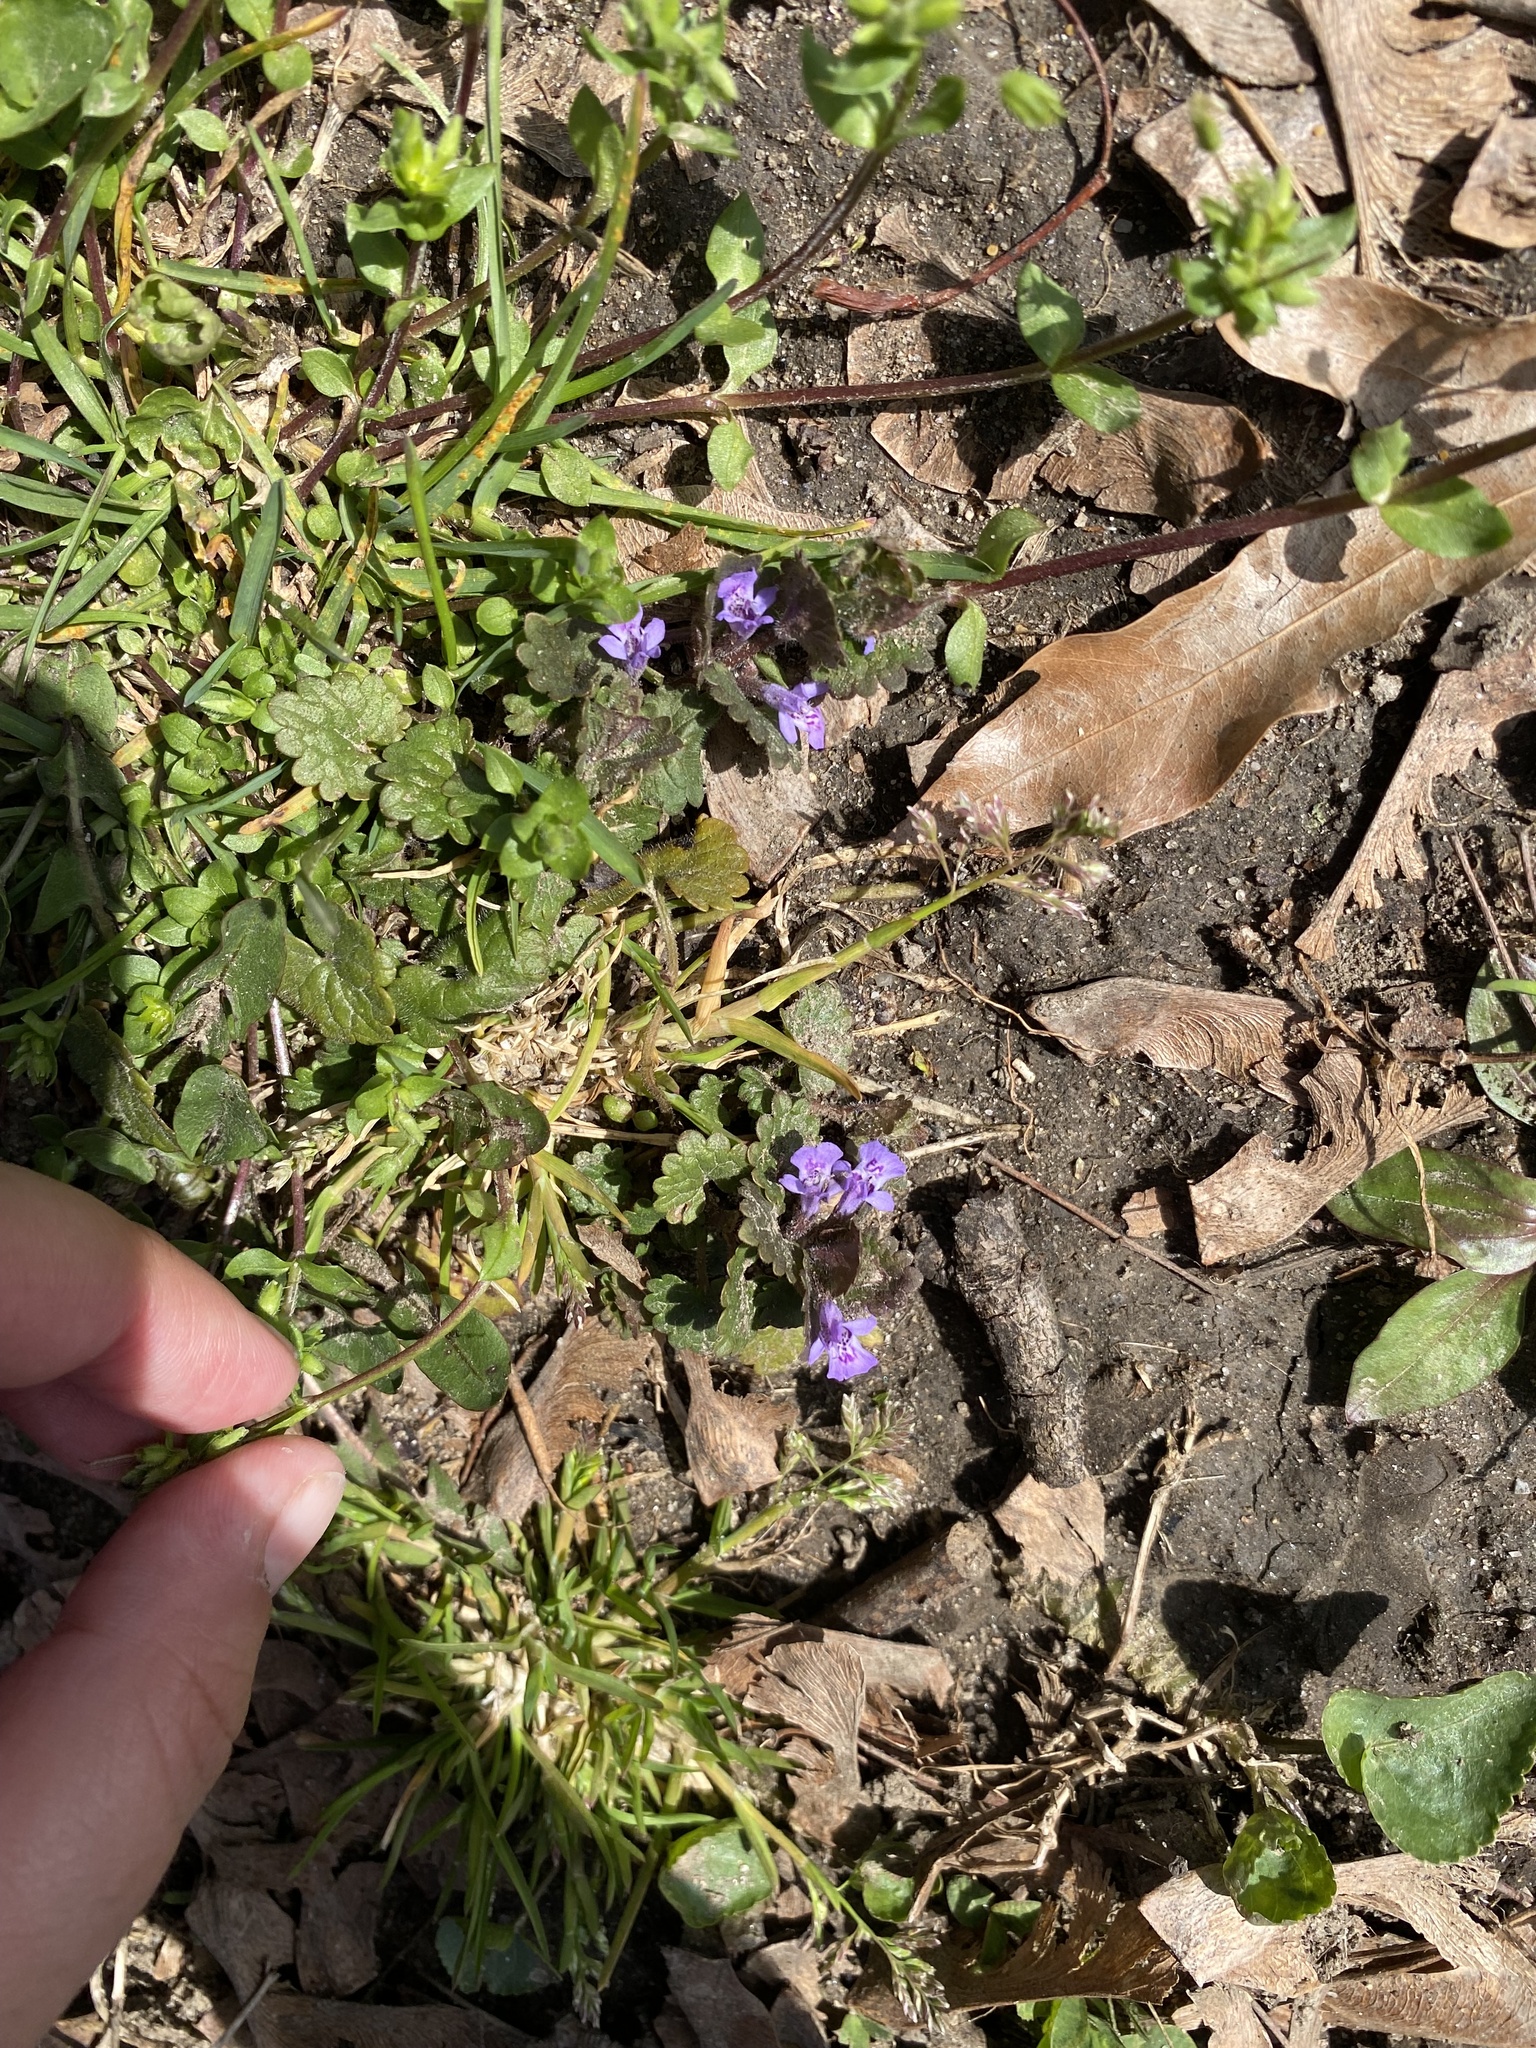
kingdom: Plantae
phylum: Tracheophyta
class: Magnoliopsida
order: Lamiales
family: Lamiaceae
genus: Glechoma
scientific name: Glechoma hederacea
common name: Ground ivy
